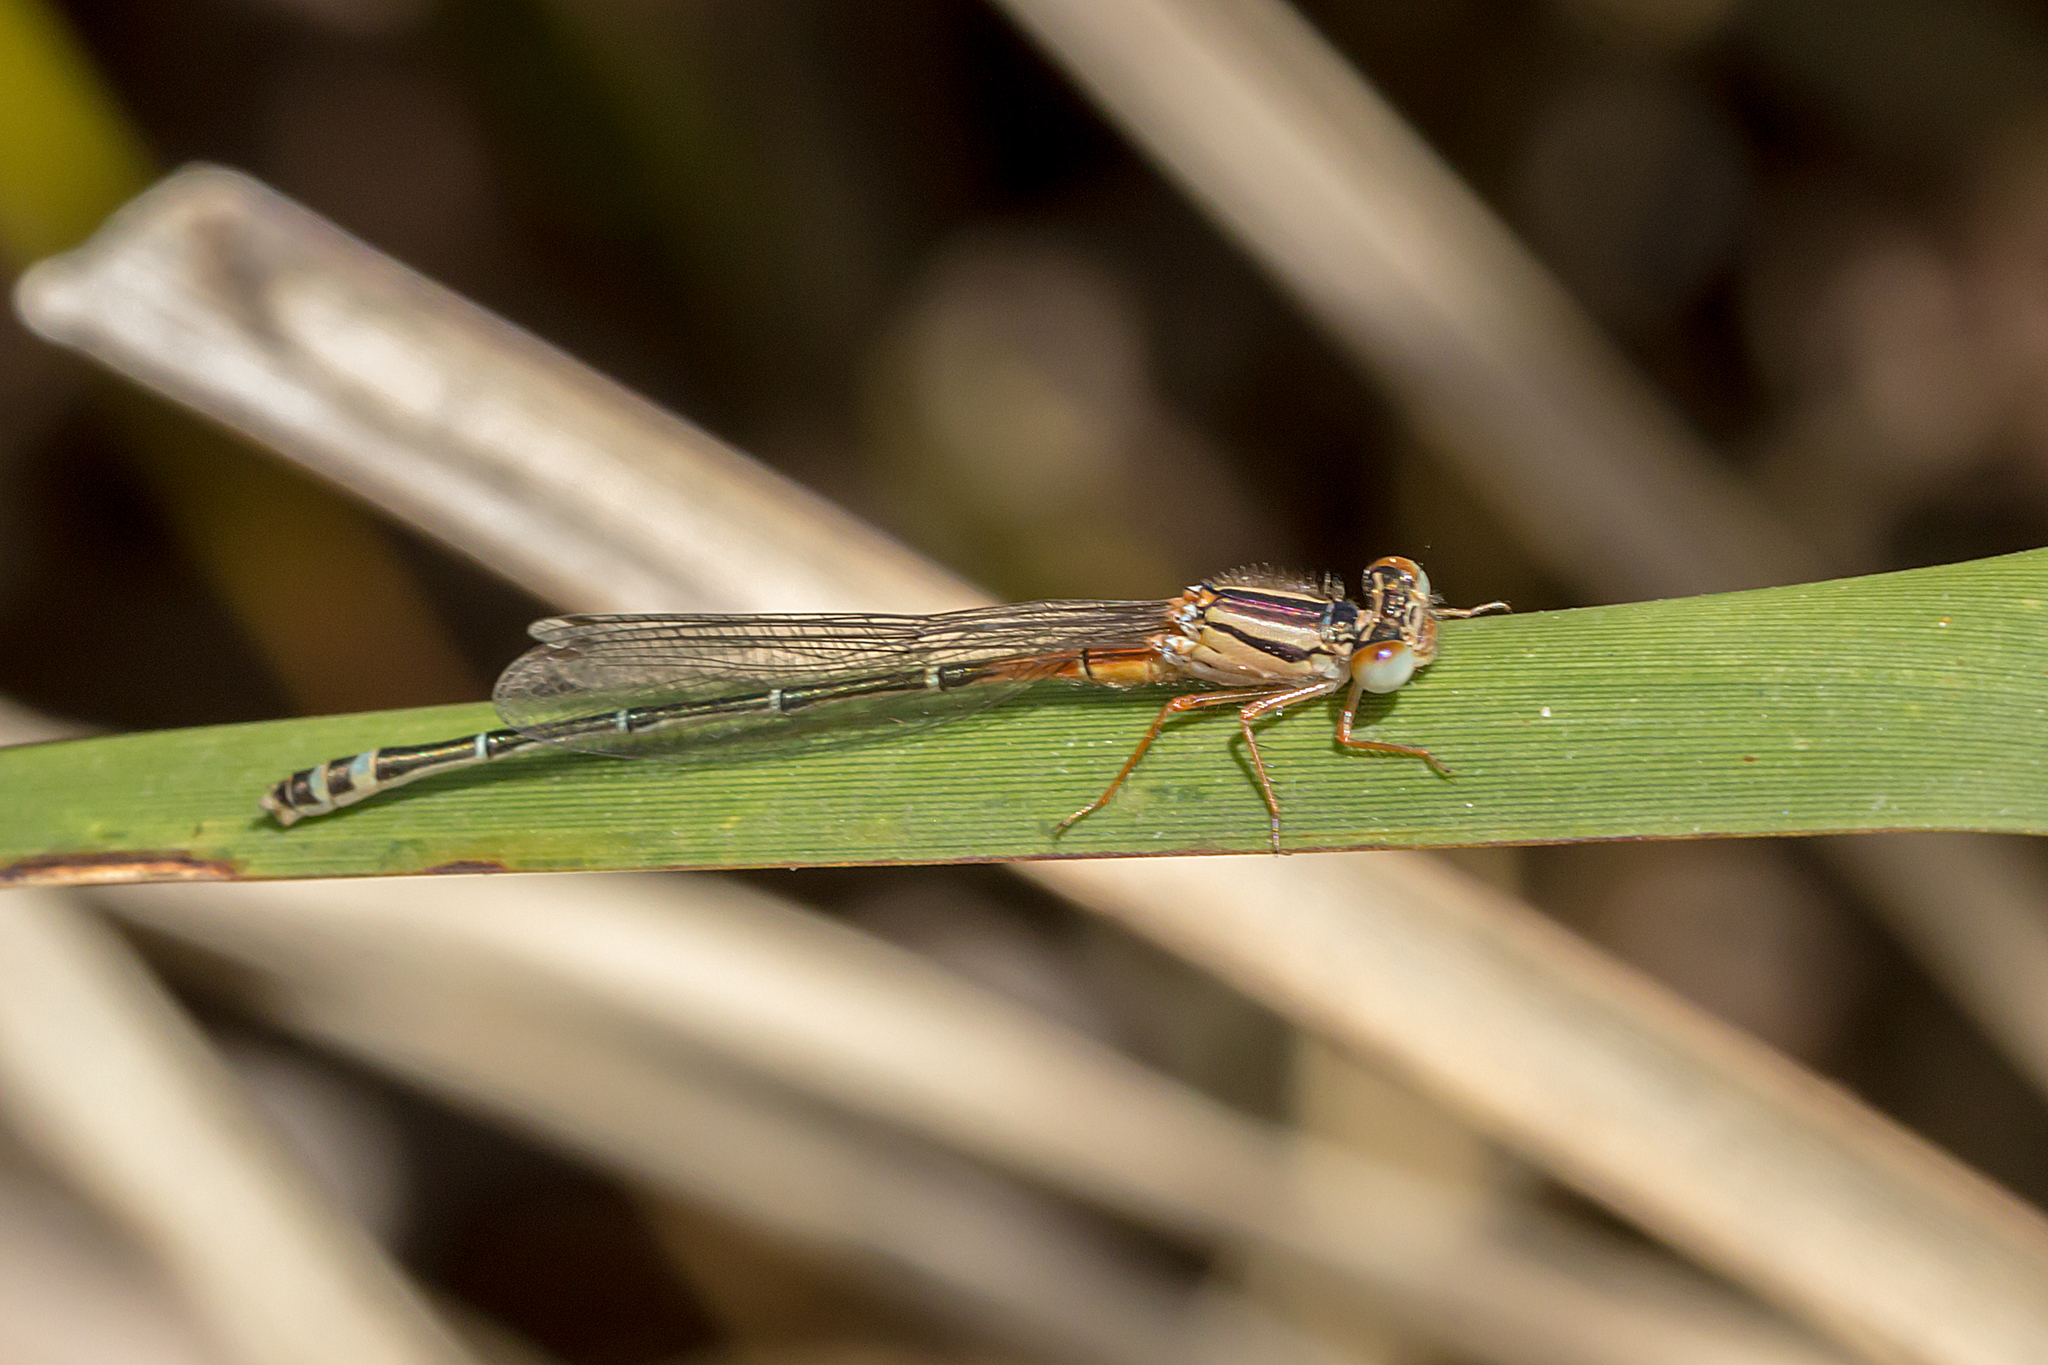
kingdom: Animalia
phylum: Arthropoda
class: Insecta
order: Odonata
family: Coenagrionidae
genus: Xanthagrion
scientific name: Xanthagrion erythroneurum
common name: Red and blue damsel
